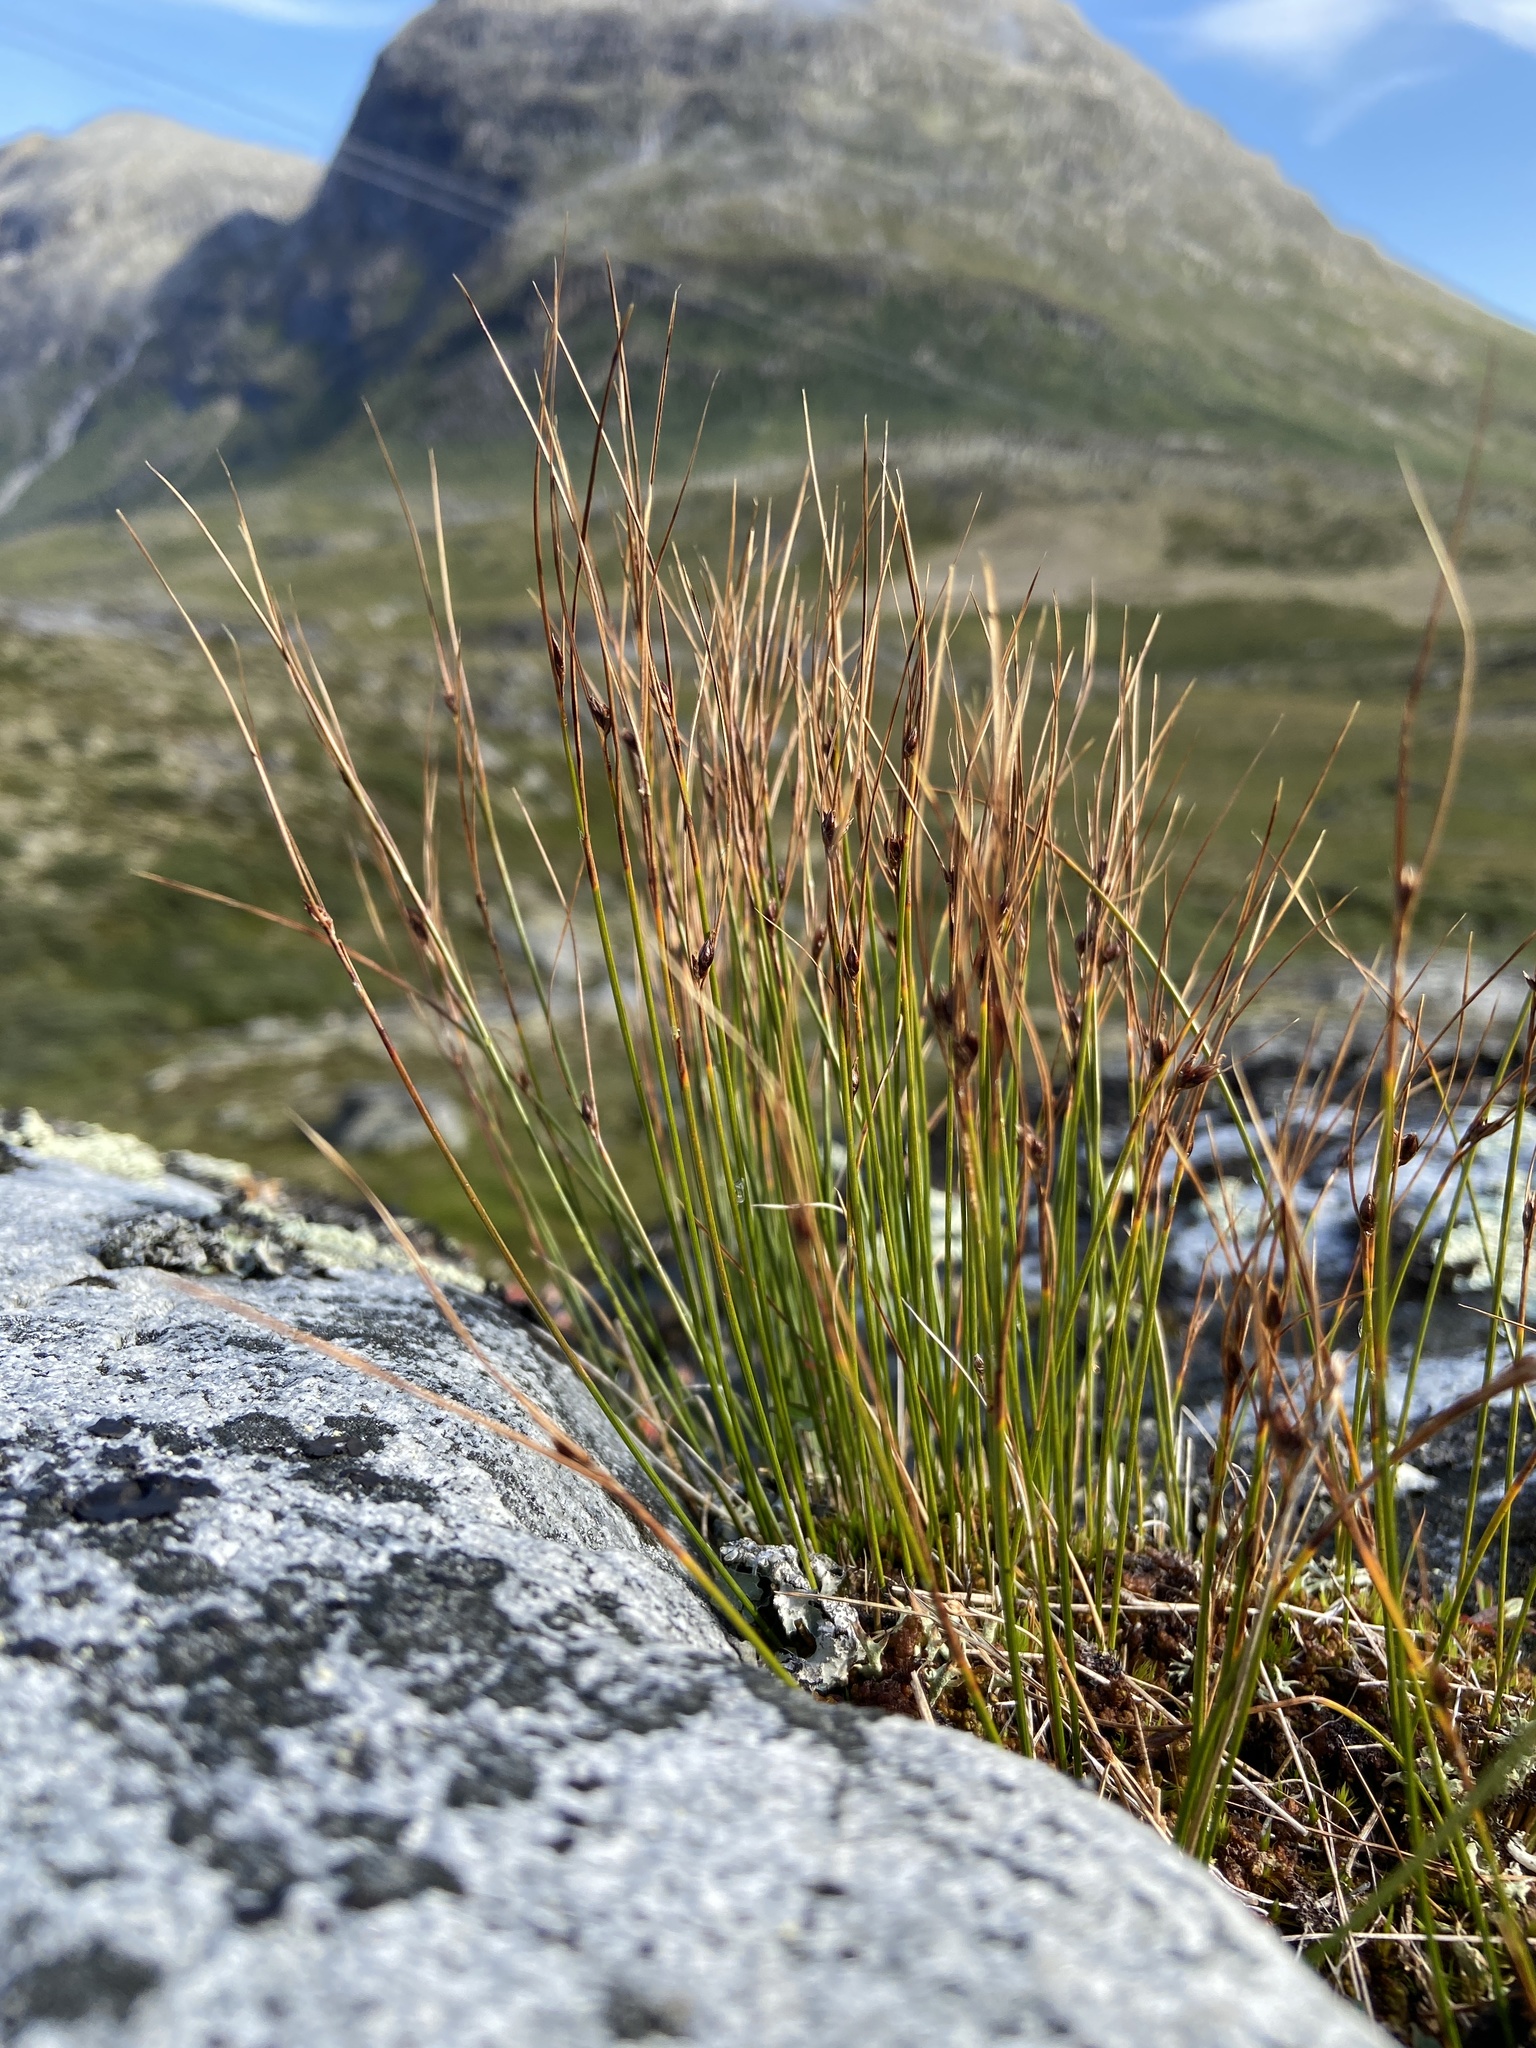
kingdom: Plantae
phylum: Tracheophyta
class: Liliopsida
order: Poales
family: Juncaceae
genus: Oreojuncus
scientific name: Oreojuncus trifidus
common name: Highland rush
